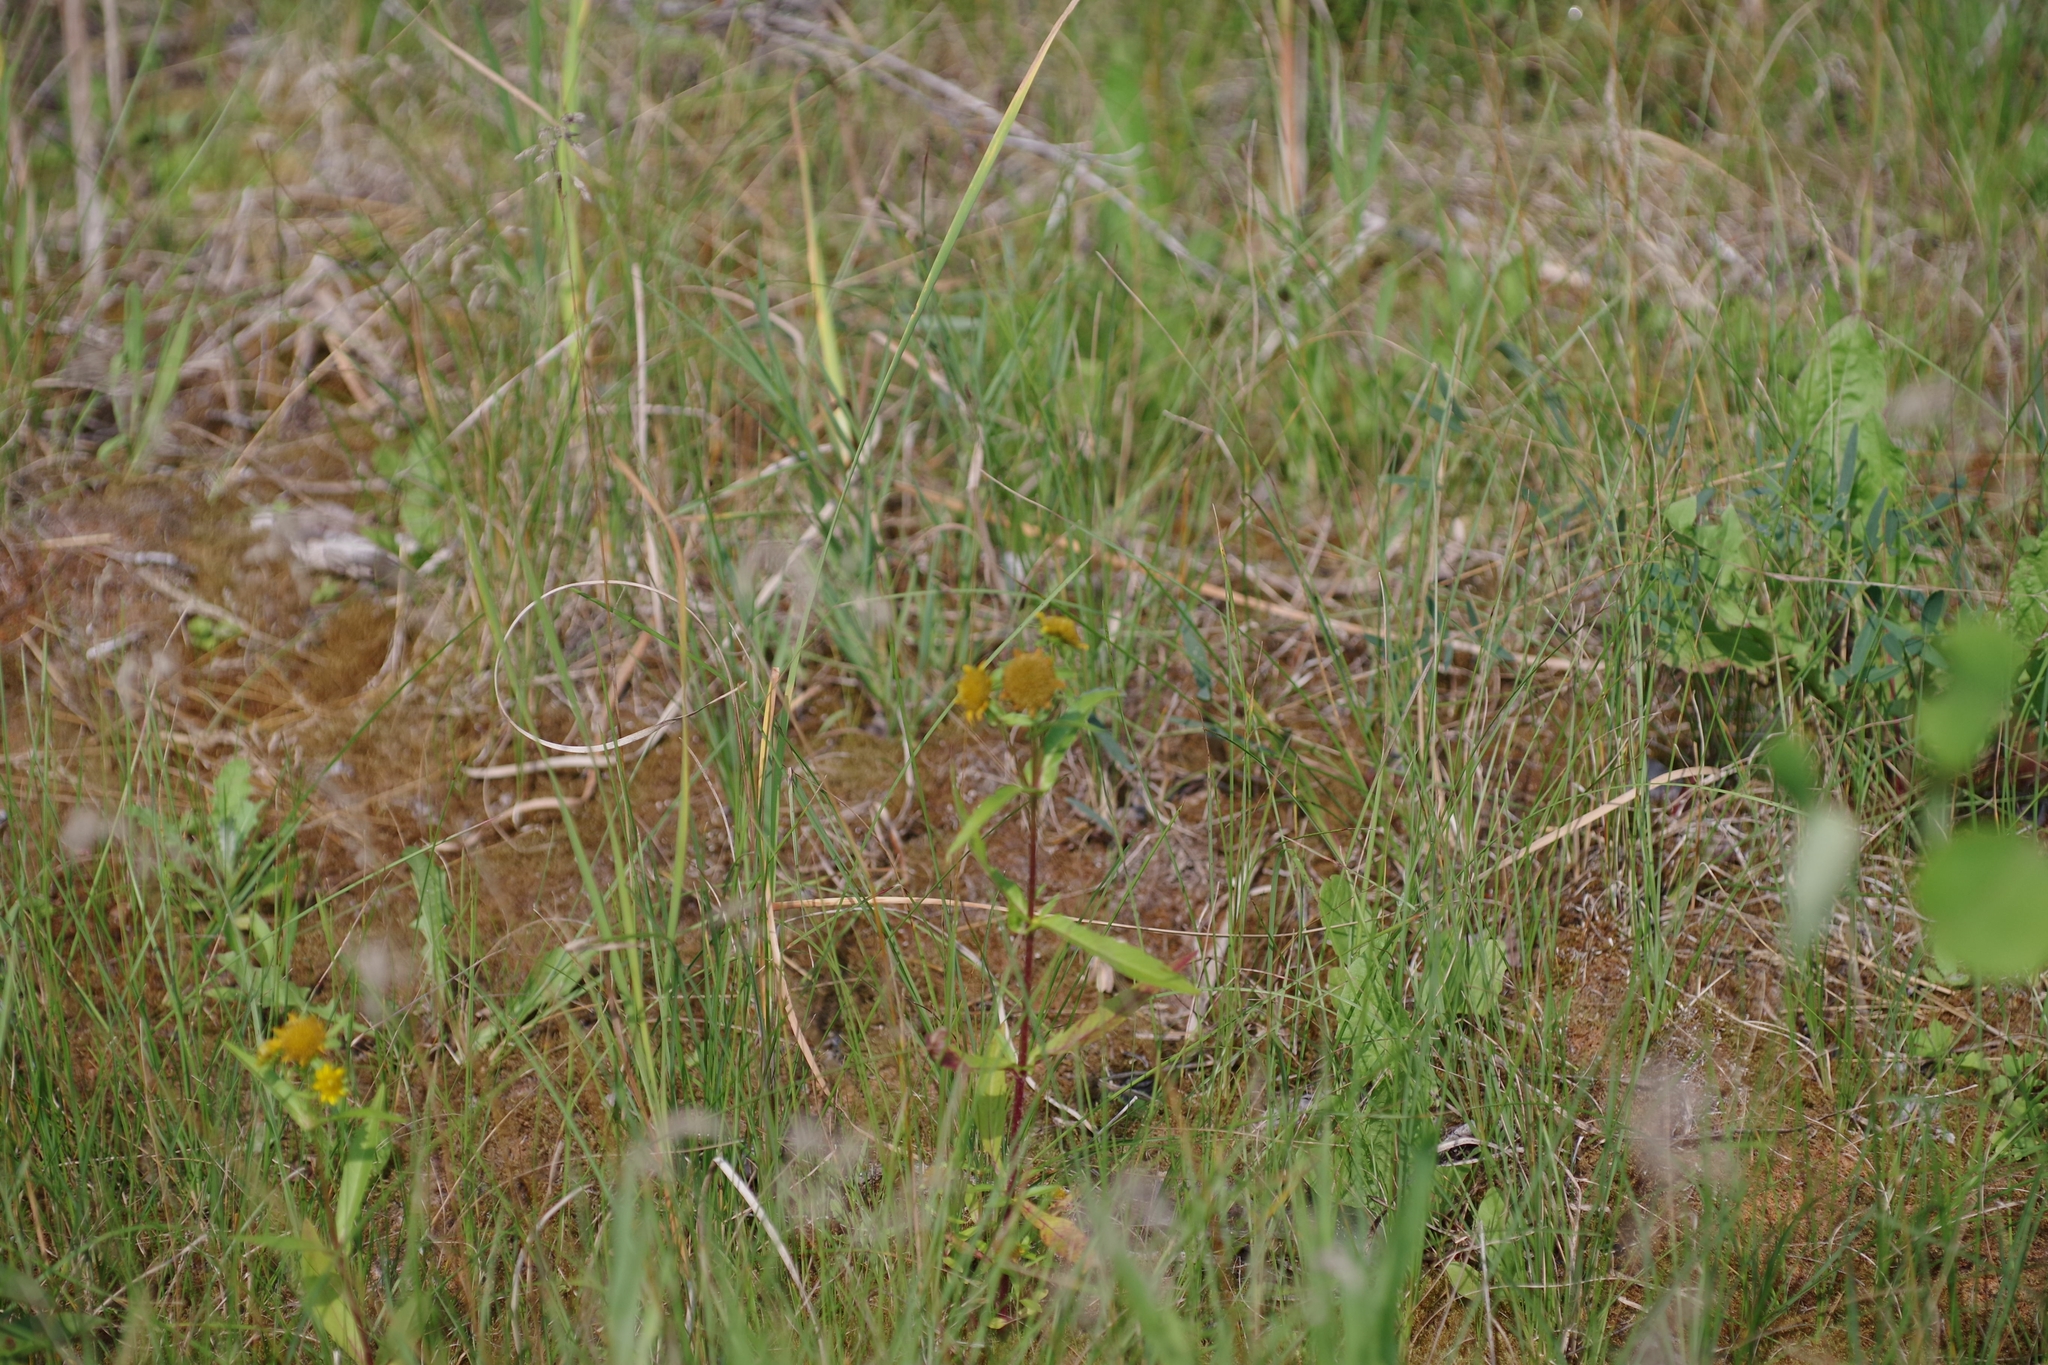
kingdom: Plantae
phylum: Tracheophyta
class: Magnoliopsida
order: Asterales
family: Asteraceae
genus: Bidens
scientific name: Bidens cernua
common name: Nodding bur-marigold
